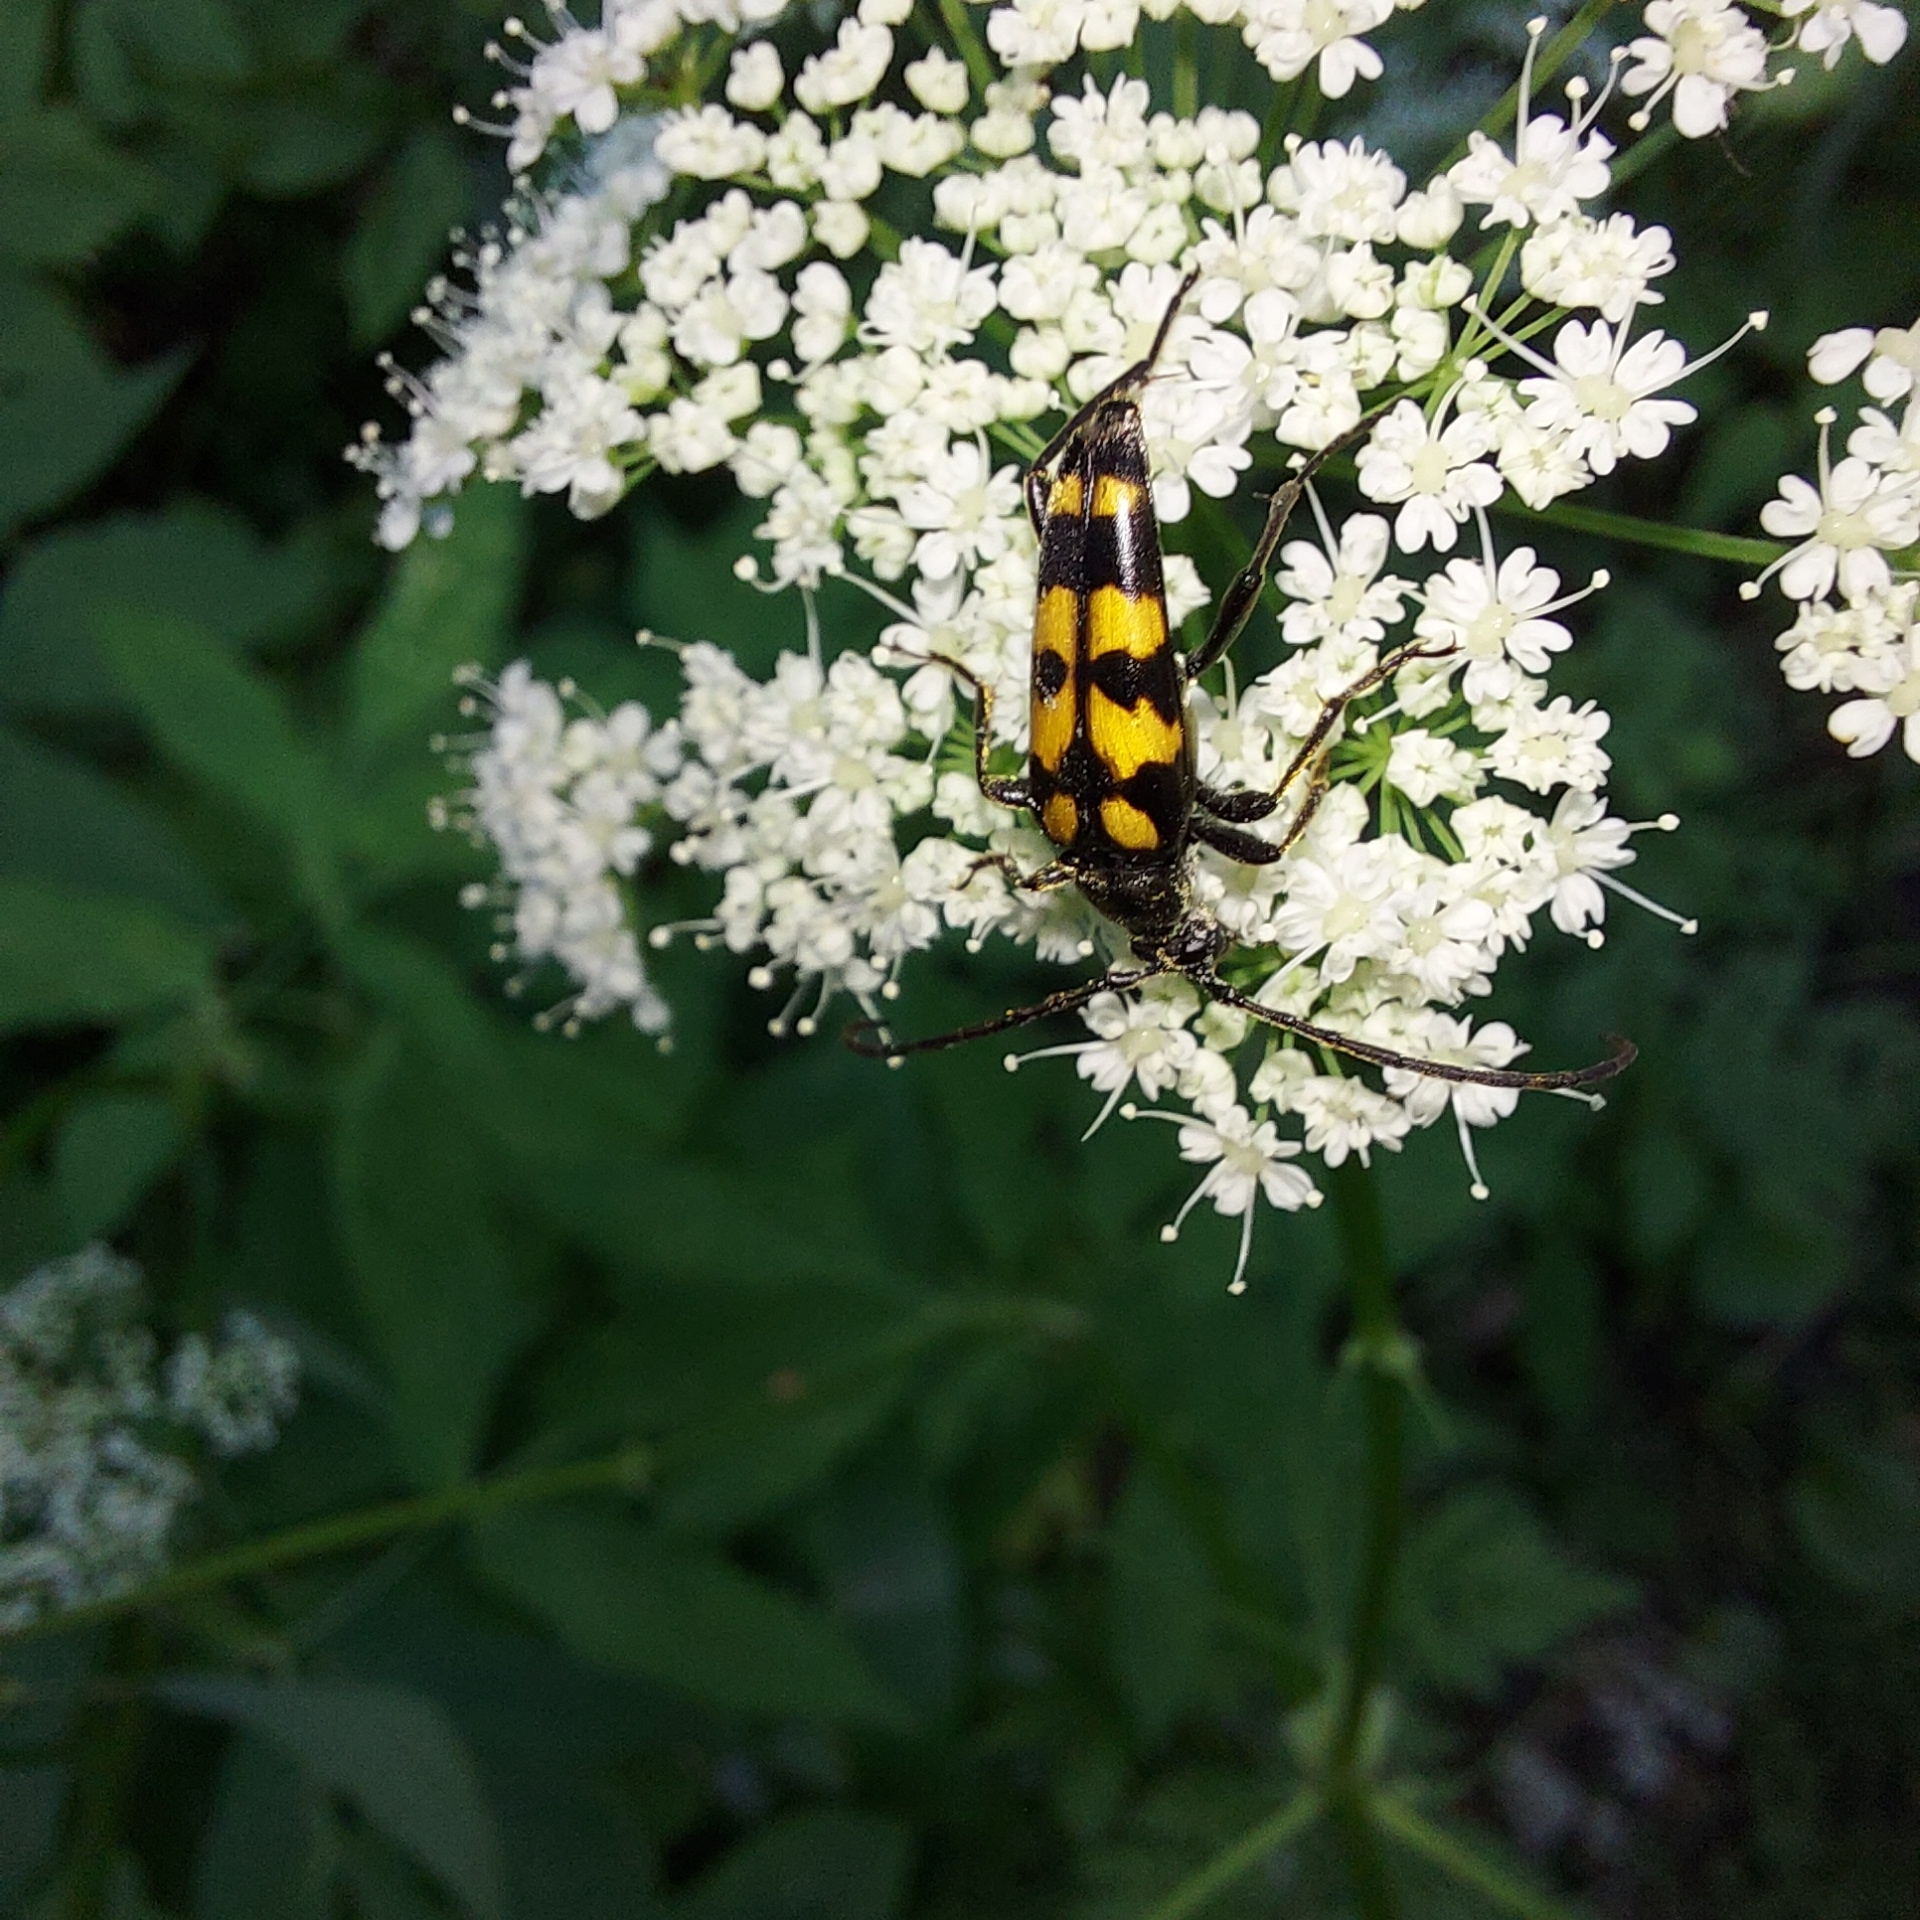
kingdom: Animalia
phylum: Arthropoda
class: Insecta
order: Coleoptera
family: Cerambycidae
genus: Leptura
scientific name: Leptura quadrifasciata
